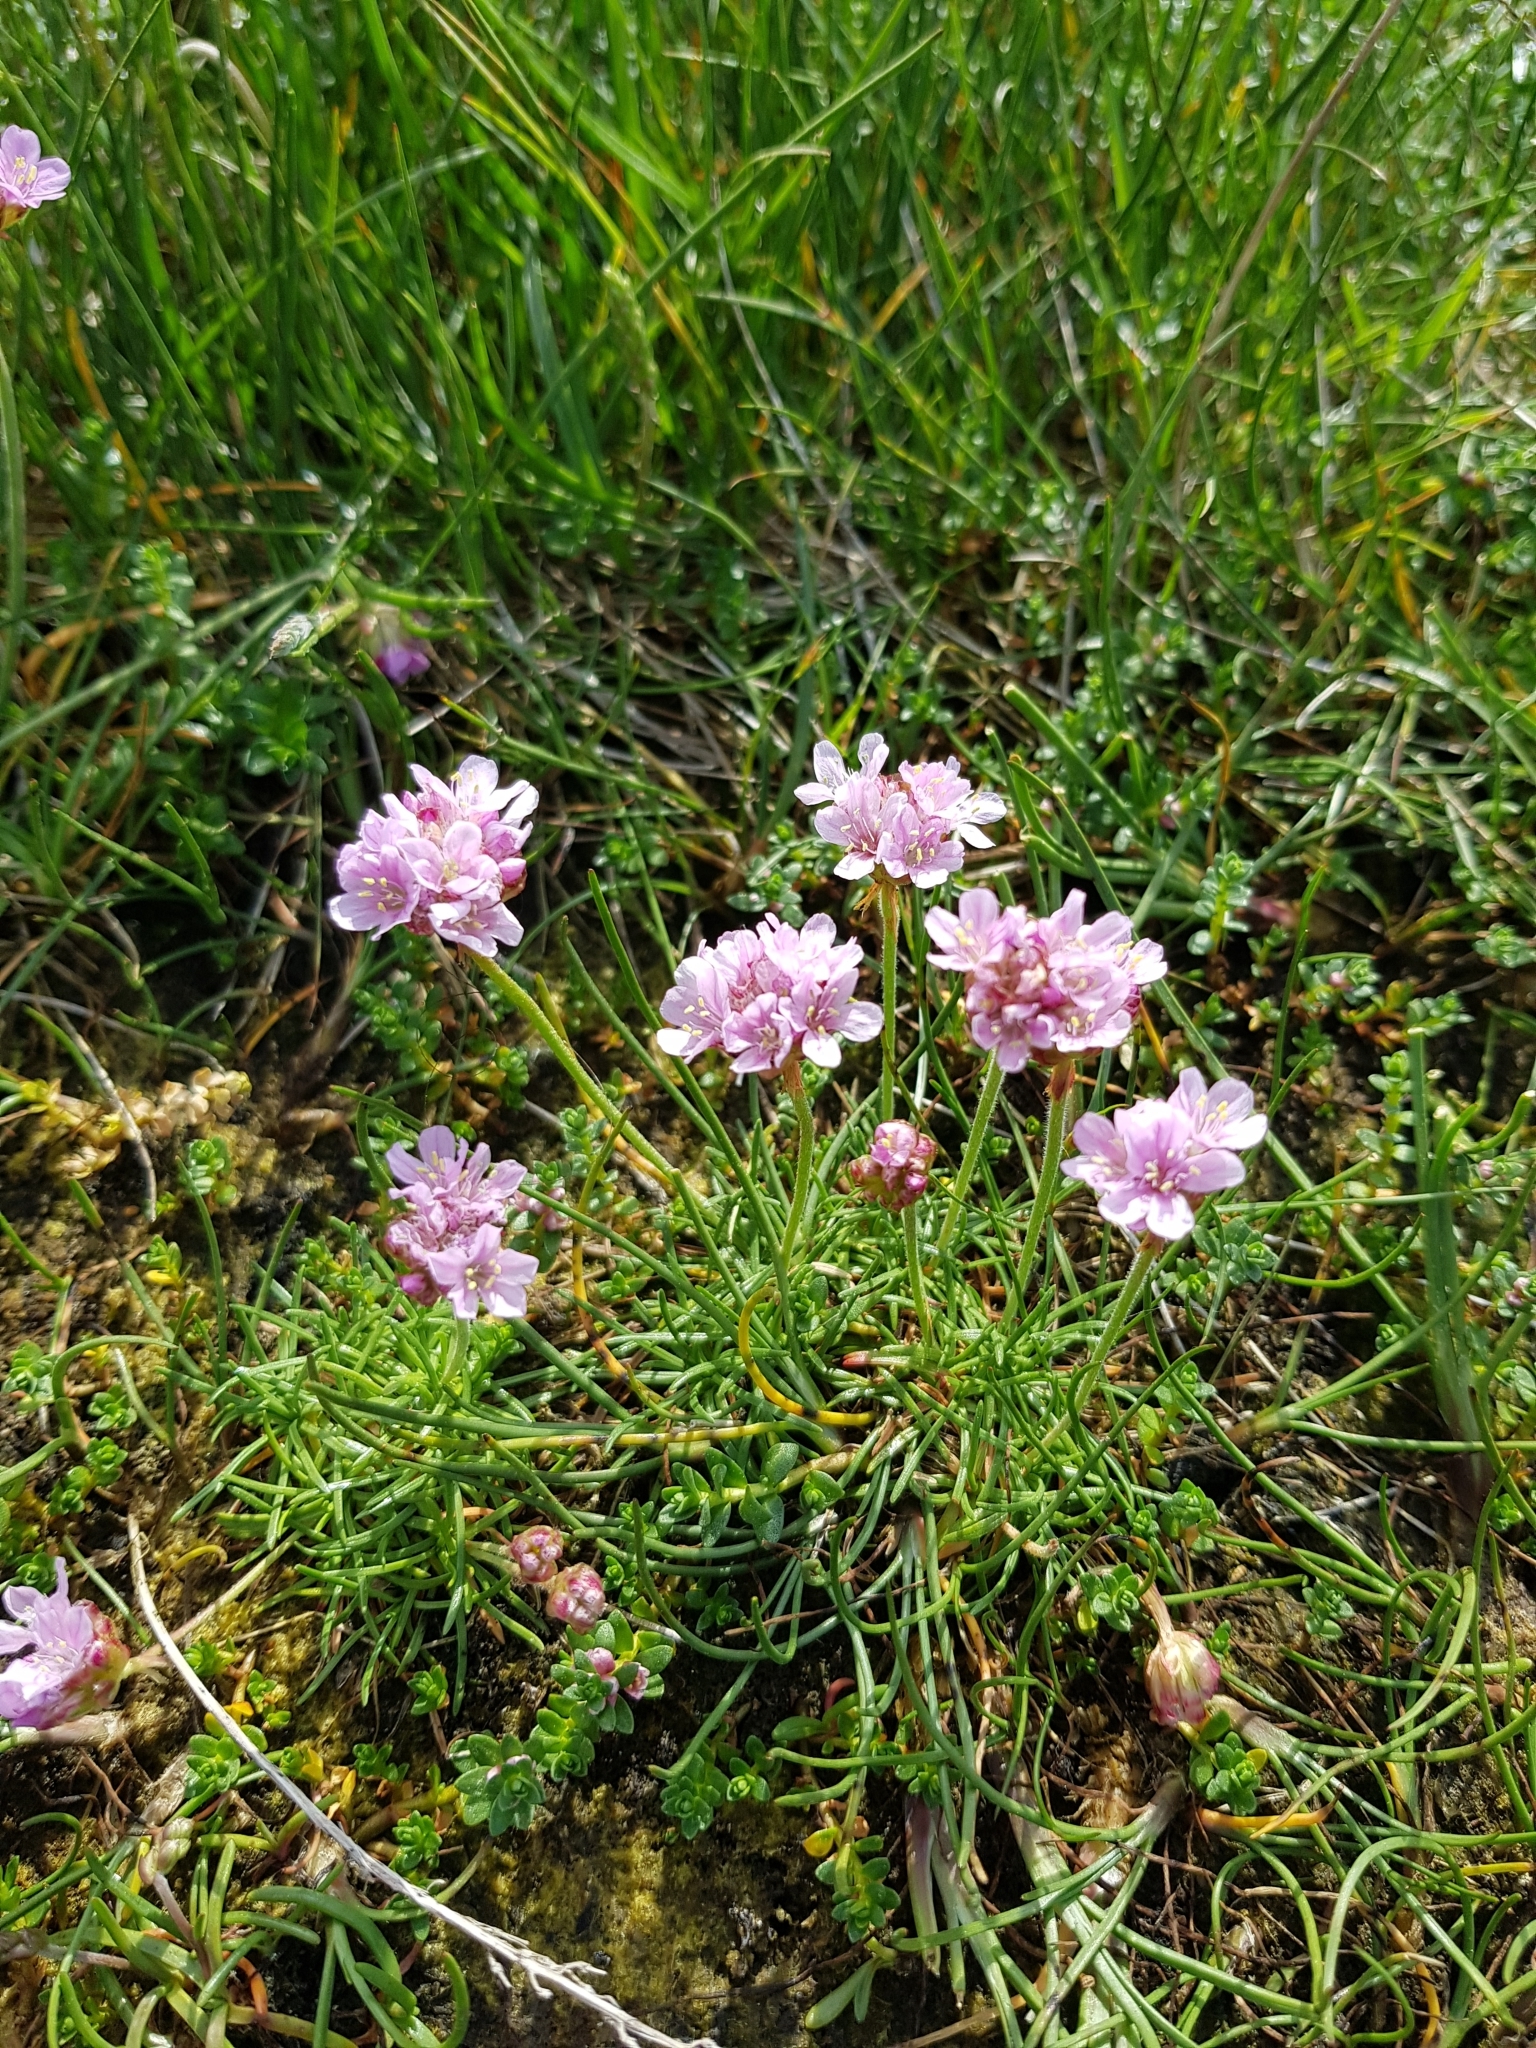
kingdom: Plantae
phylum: Tracheophyta
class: Magnoliopsida
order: Caryophyllales
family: Plumbaginaceae
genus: Armeria
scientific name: Armeria maritima
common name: Thrift
